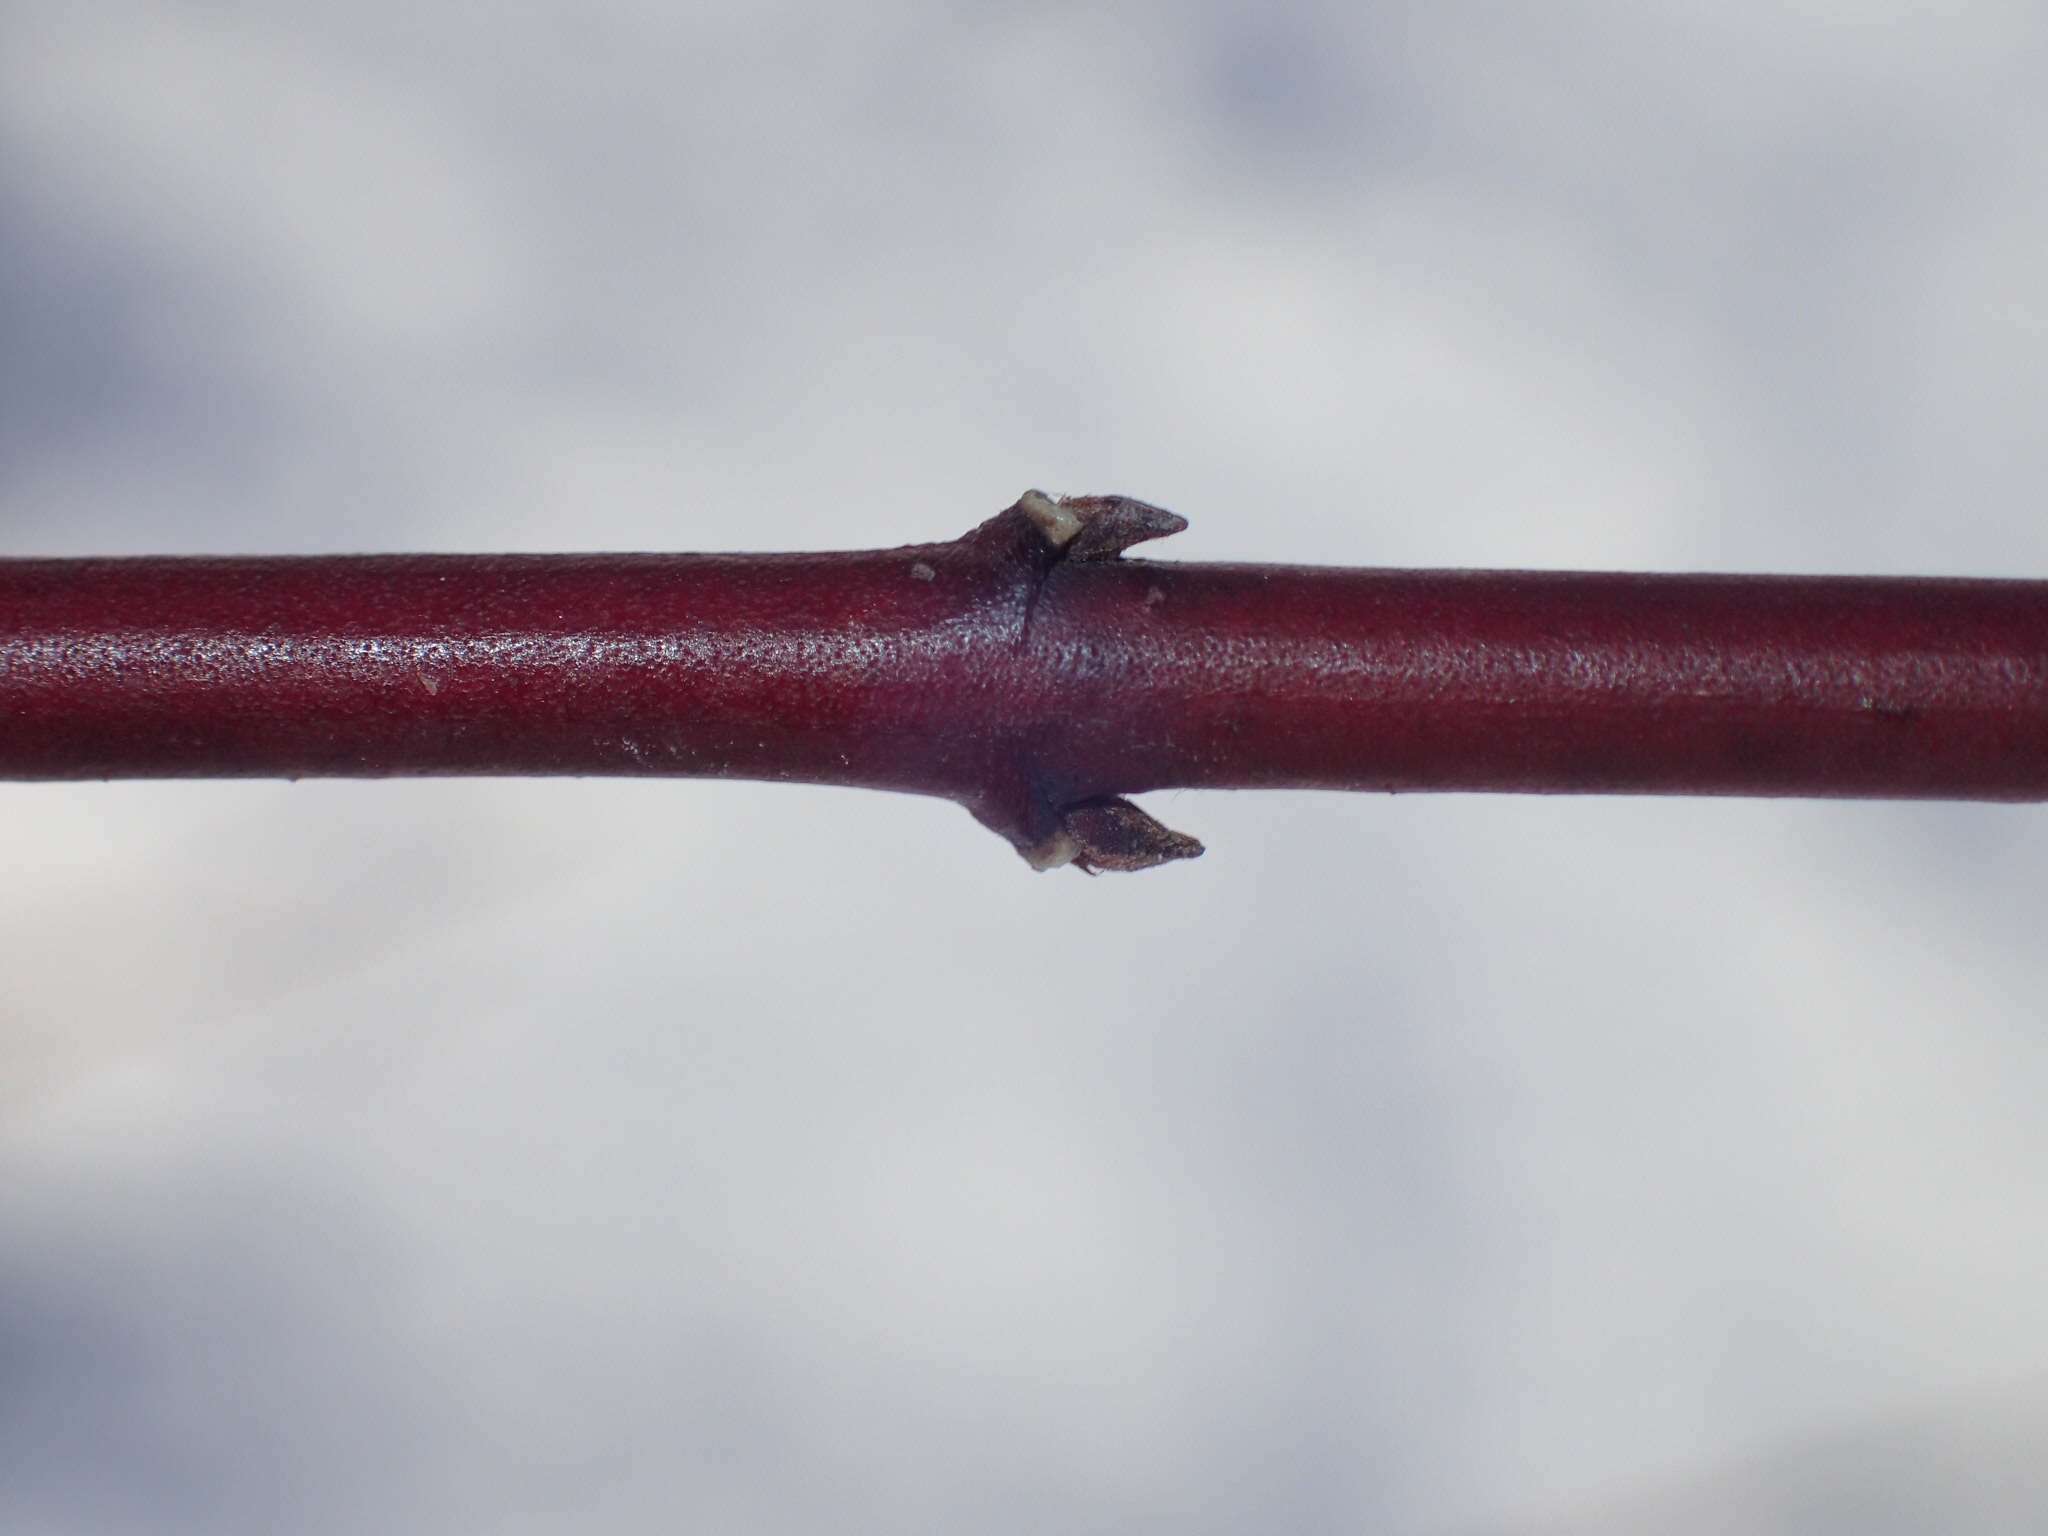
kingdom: Plantae
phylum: Tracheophyta
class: Magnoliopsida
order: Cornales
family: Cornaceae
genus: Cornus
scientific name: Cornus amomum
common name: Silky dogwood
